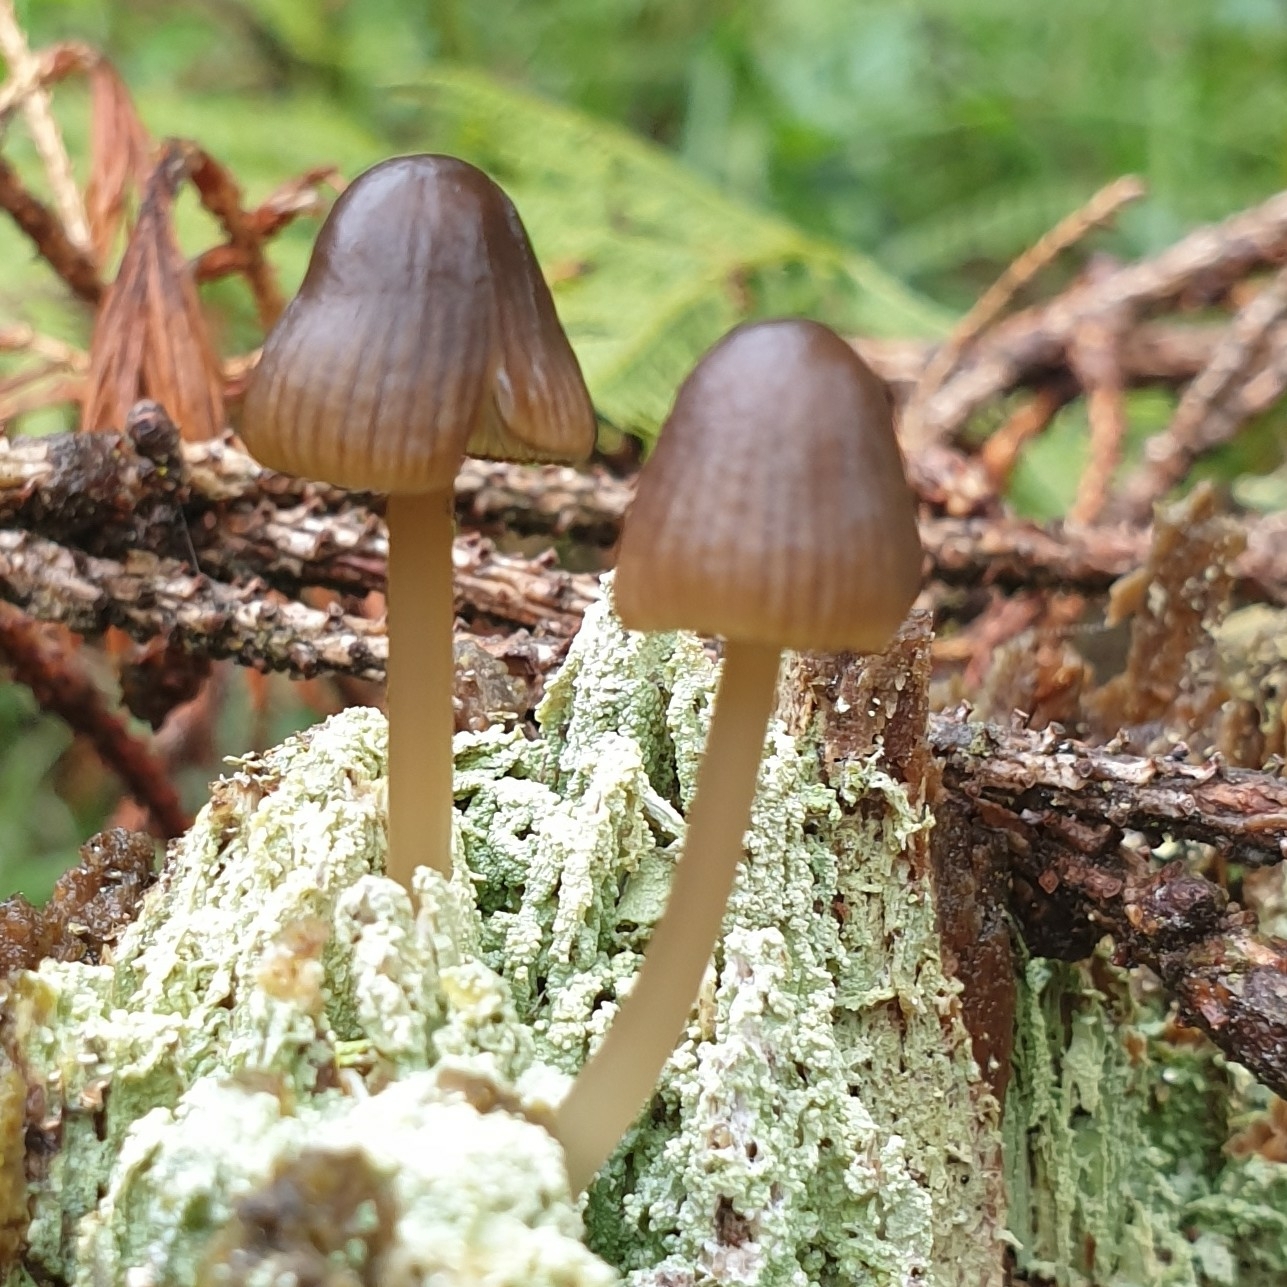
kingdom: Fungi
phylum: Basidiomycota
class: Agaricomycetes
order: Agaricales
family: Mycenaceae
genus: Mycena
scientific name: Mycena viridimarginata
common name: Olive edge bonnet
